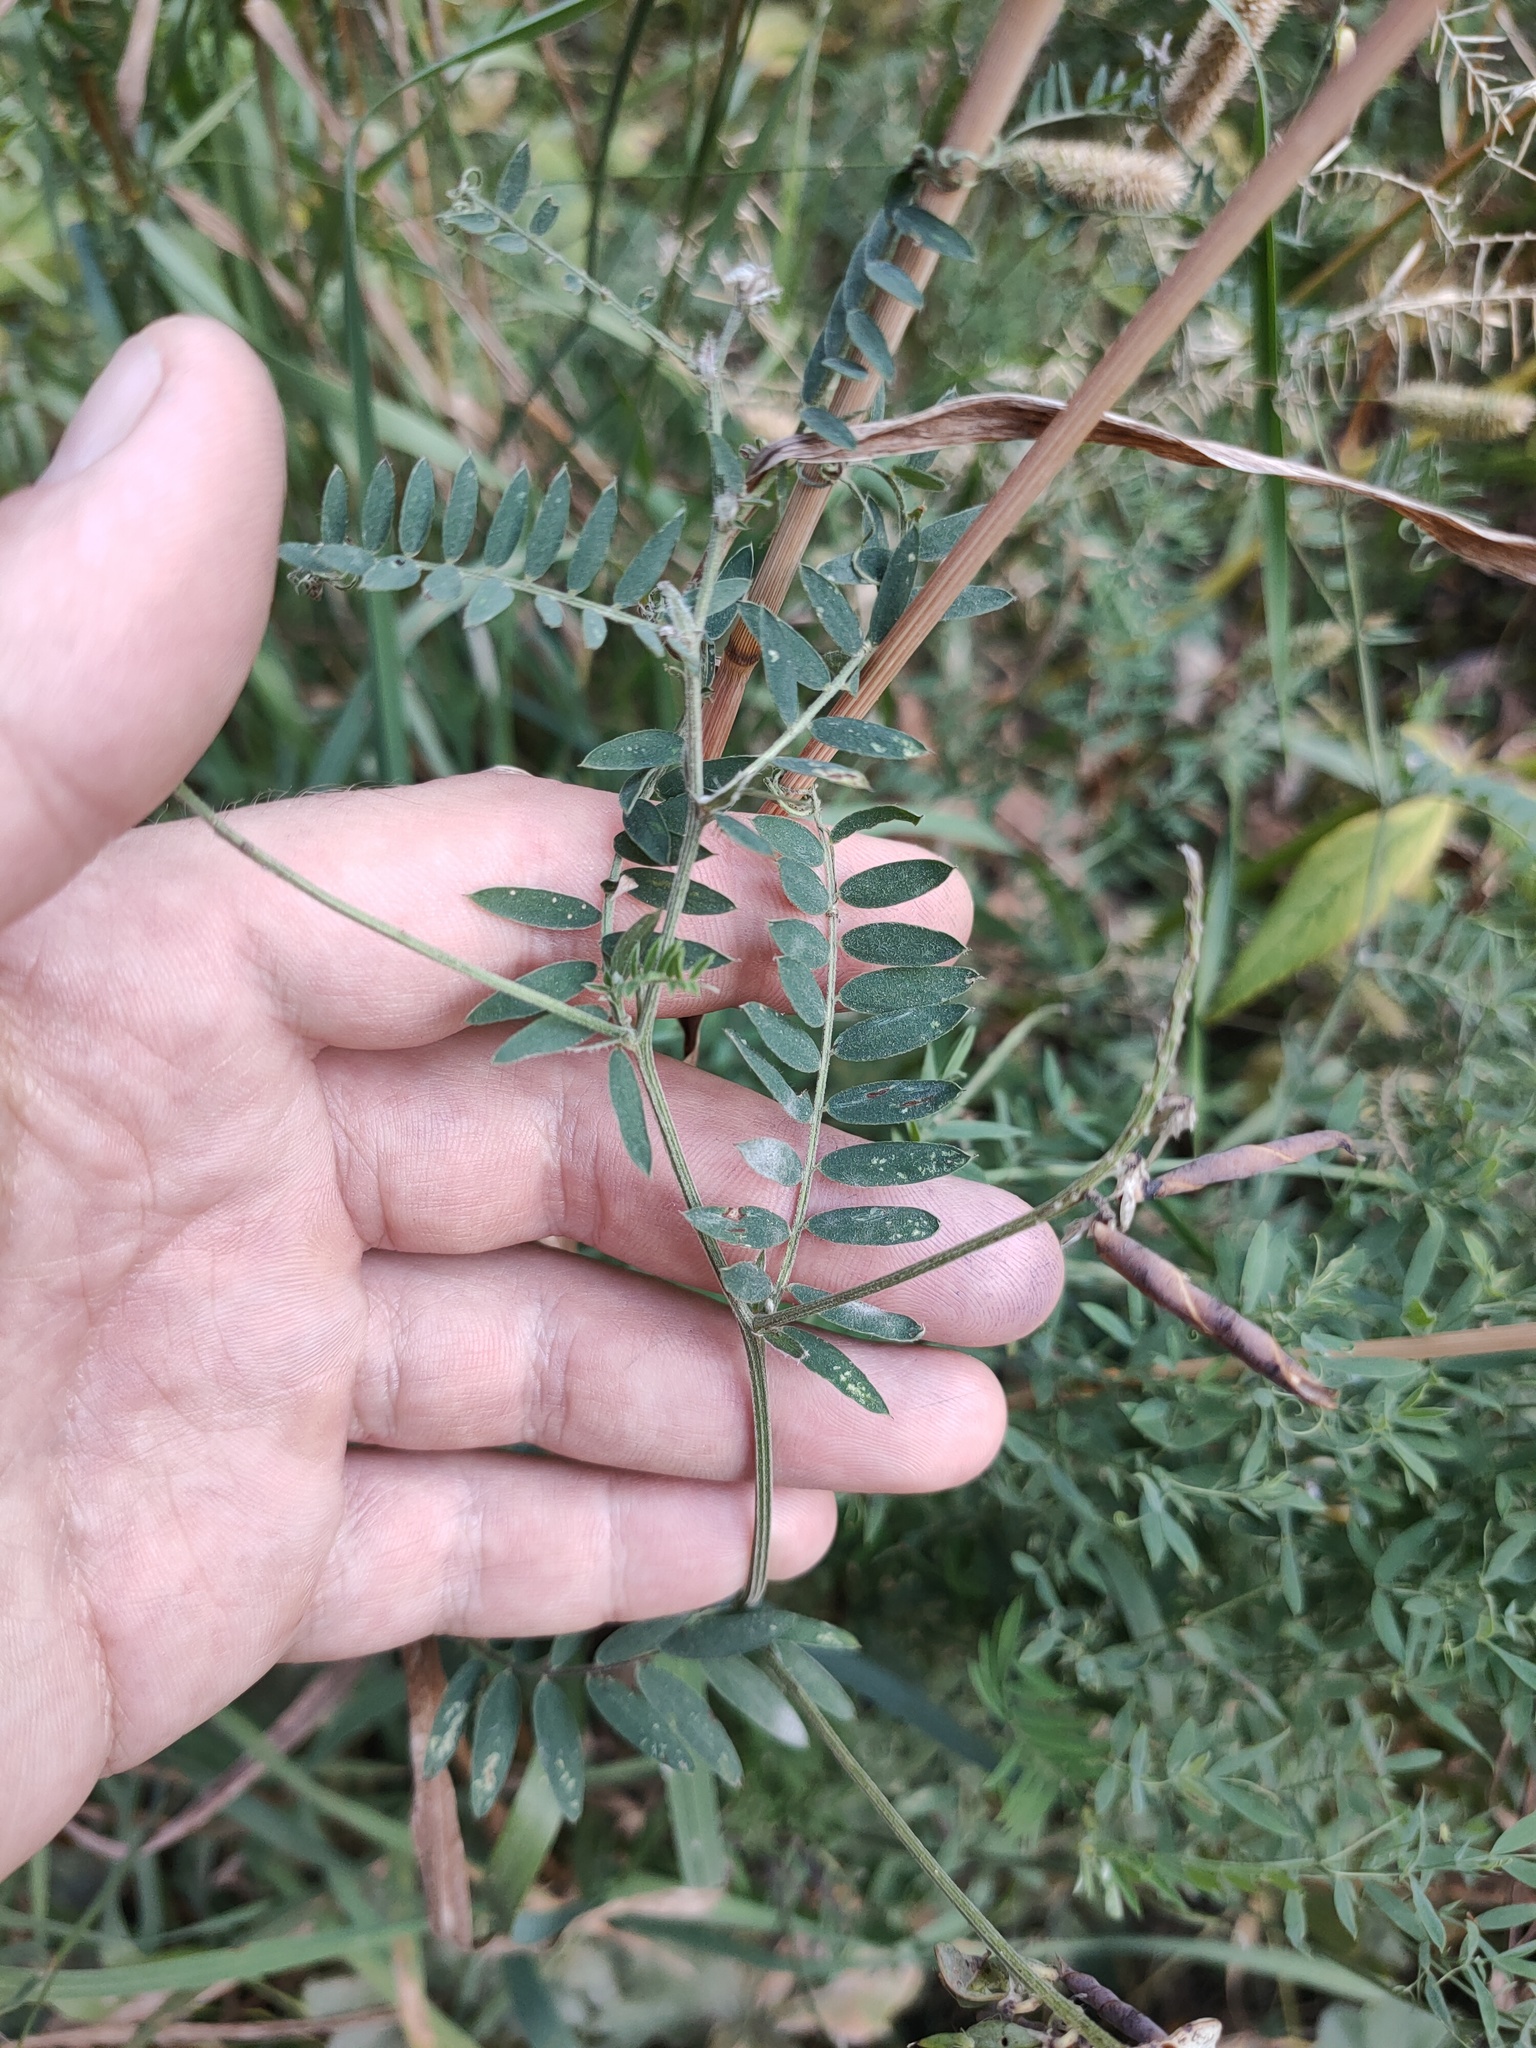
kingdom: Plantae
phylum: Tracheophyta
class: Magnoliopsida
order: Fabales
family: Fabaceae
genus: Vicia
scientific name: Vicia cracca
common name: Bird vetch
